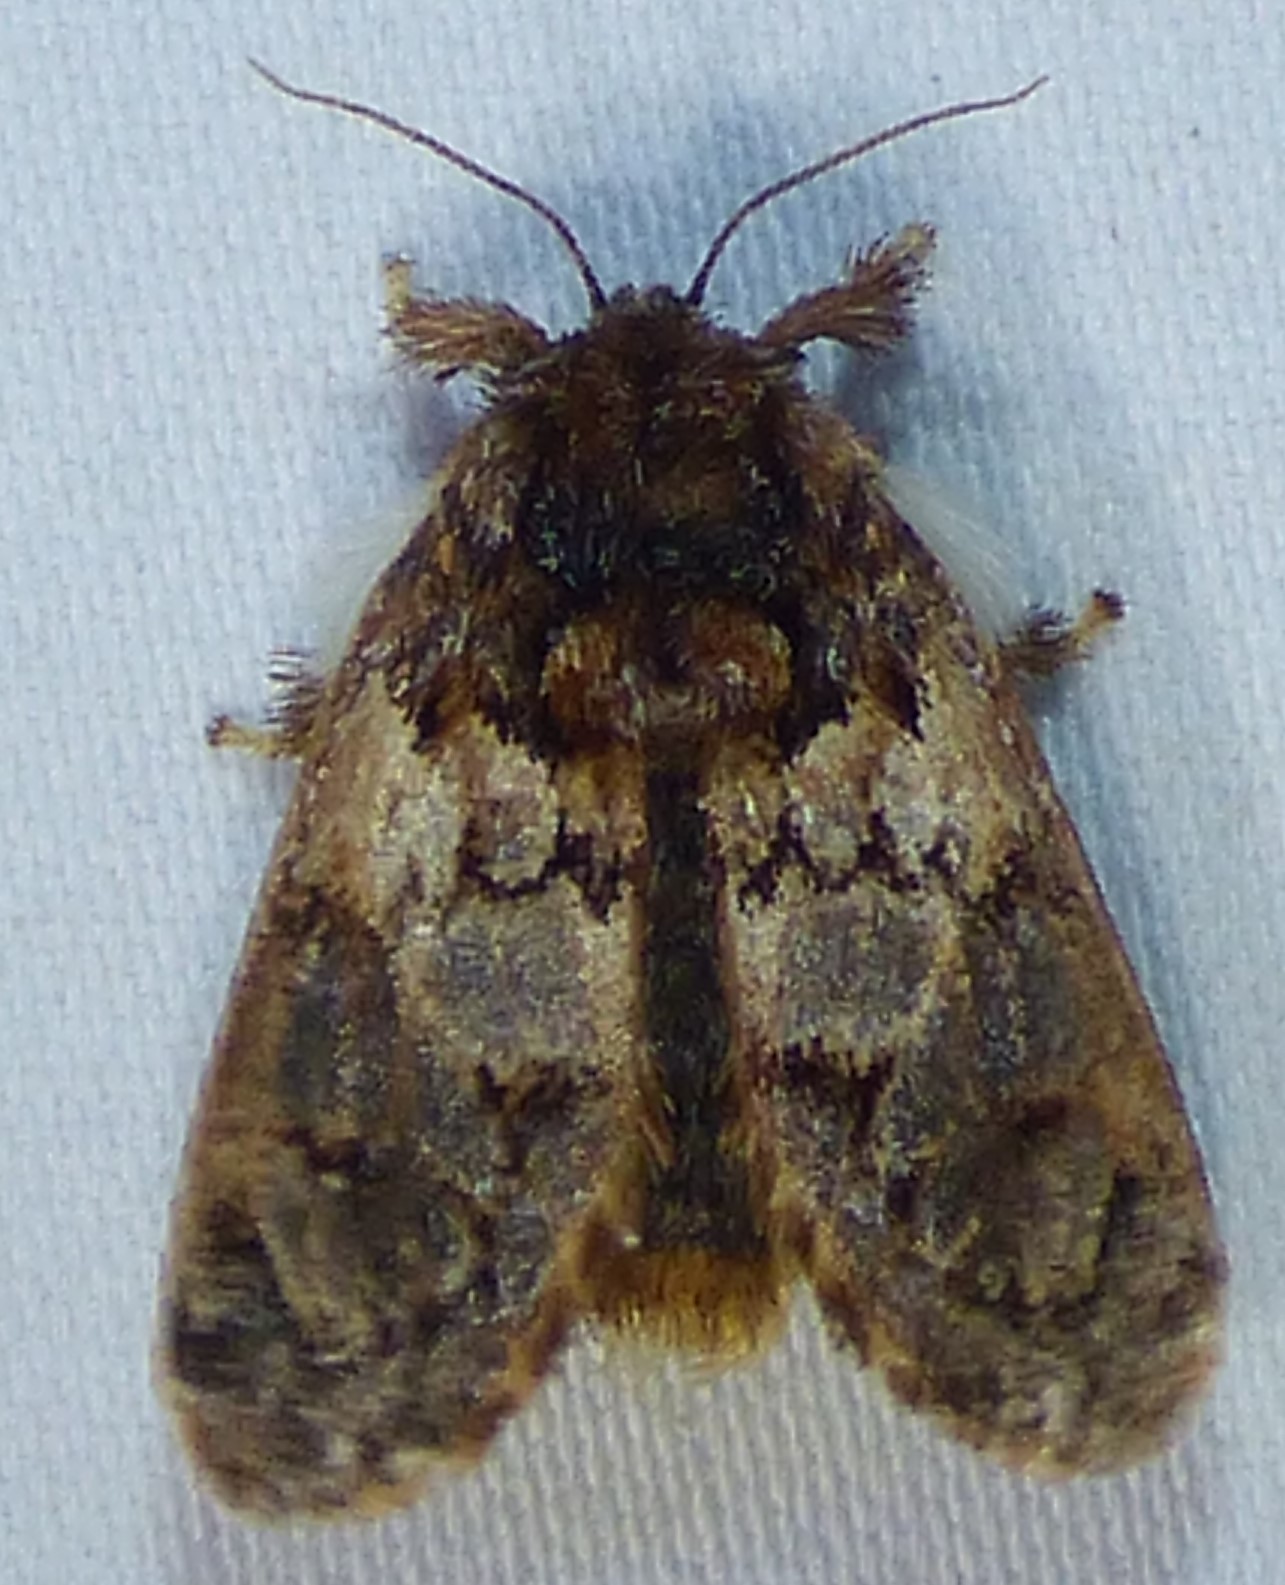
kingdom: Animalia
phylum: Arthropoda
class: Insecta
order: Lepidoptera
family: Limacodidae
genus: Phobetron
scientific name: Phobetron pithecium
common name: Hag moth
